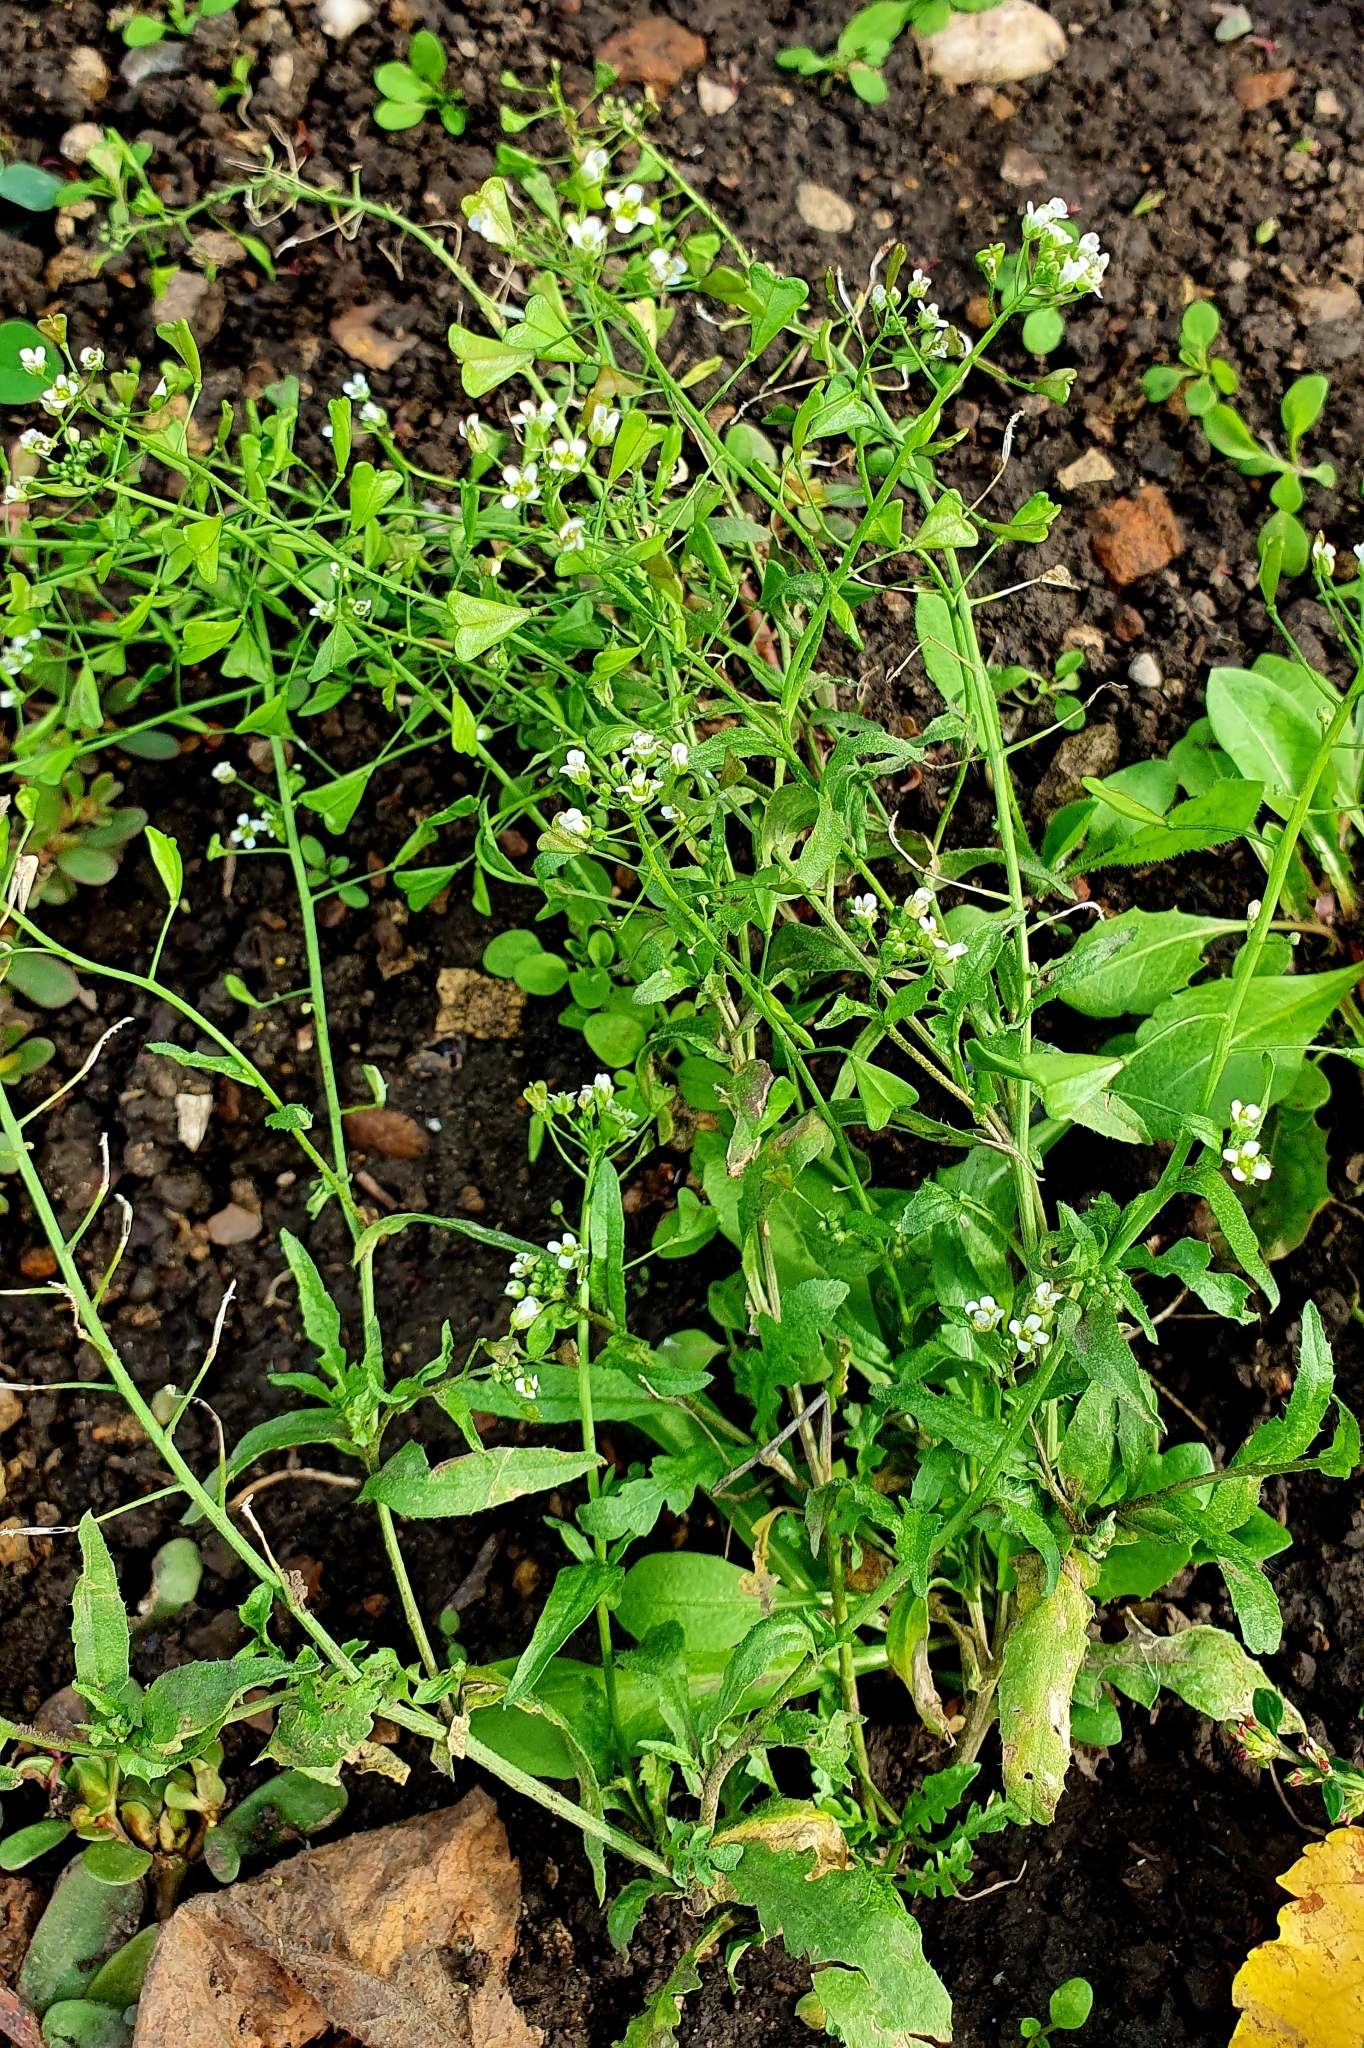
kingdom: Plantae
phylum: Tracheophyta
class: Magnoliopsida
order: Brassicales
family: Brassicaceae
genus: Capsella
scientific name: Capsella bursa-pastoris
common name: Shepherd's purse
